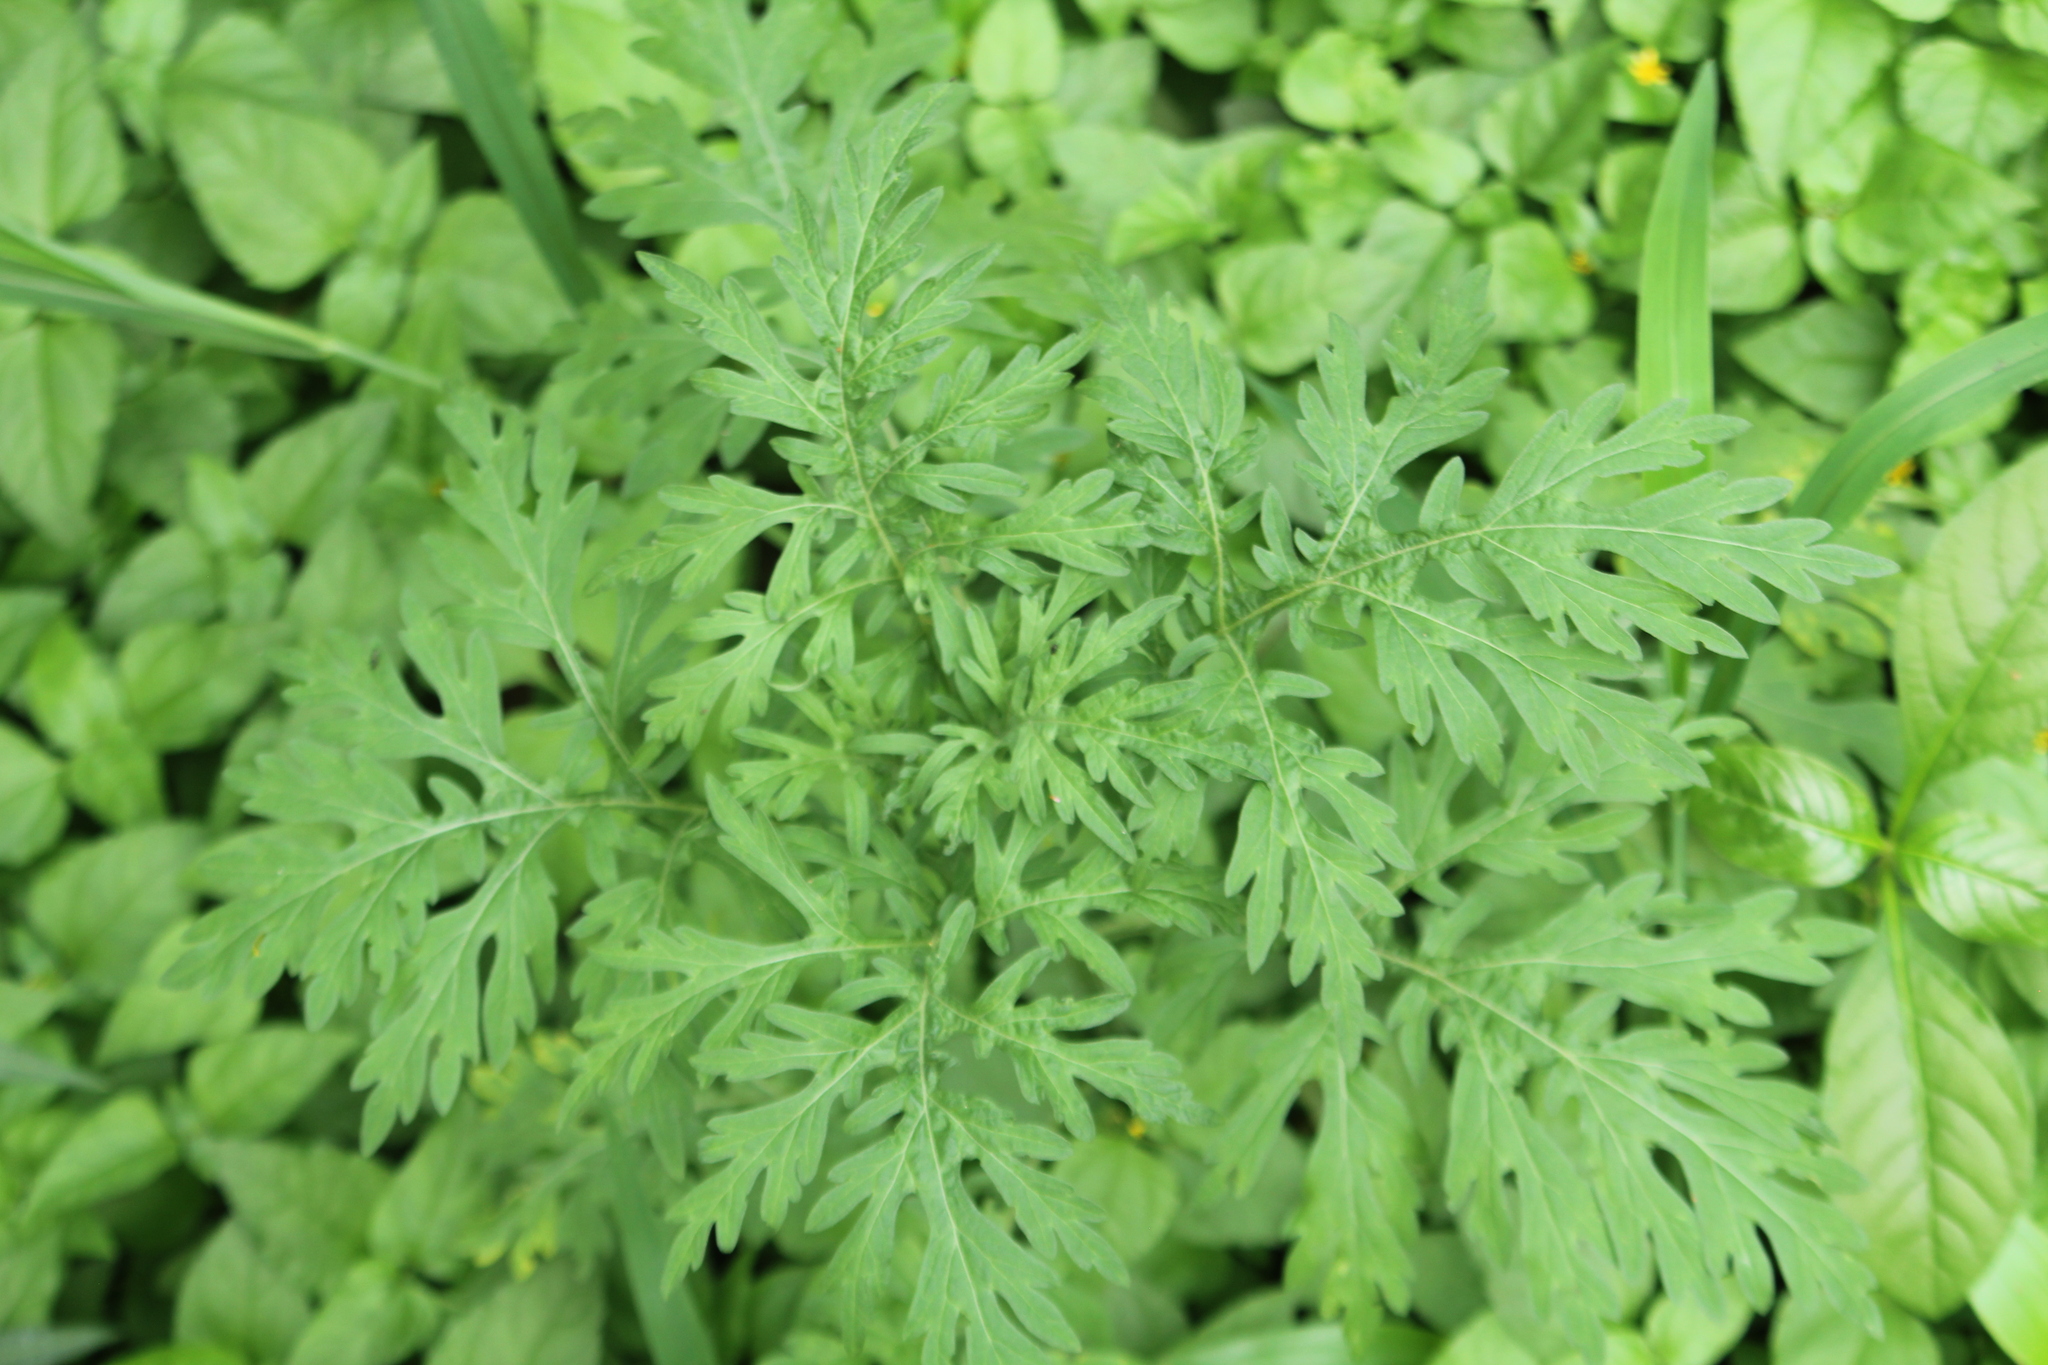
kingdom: Plantae
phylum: Tracheophyta
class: Magnoliopsida
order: Asterales
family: Asteraceae
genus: Parthenium
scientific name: Parthenium hysterophorus
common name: Santa maria feverfew
